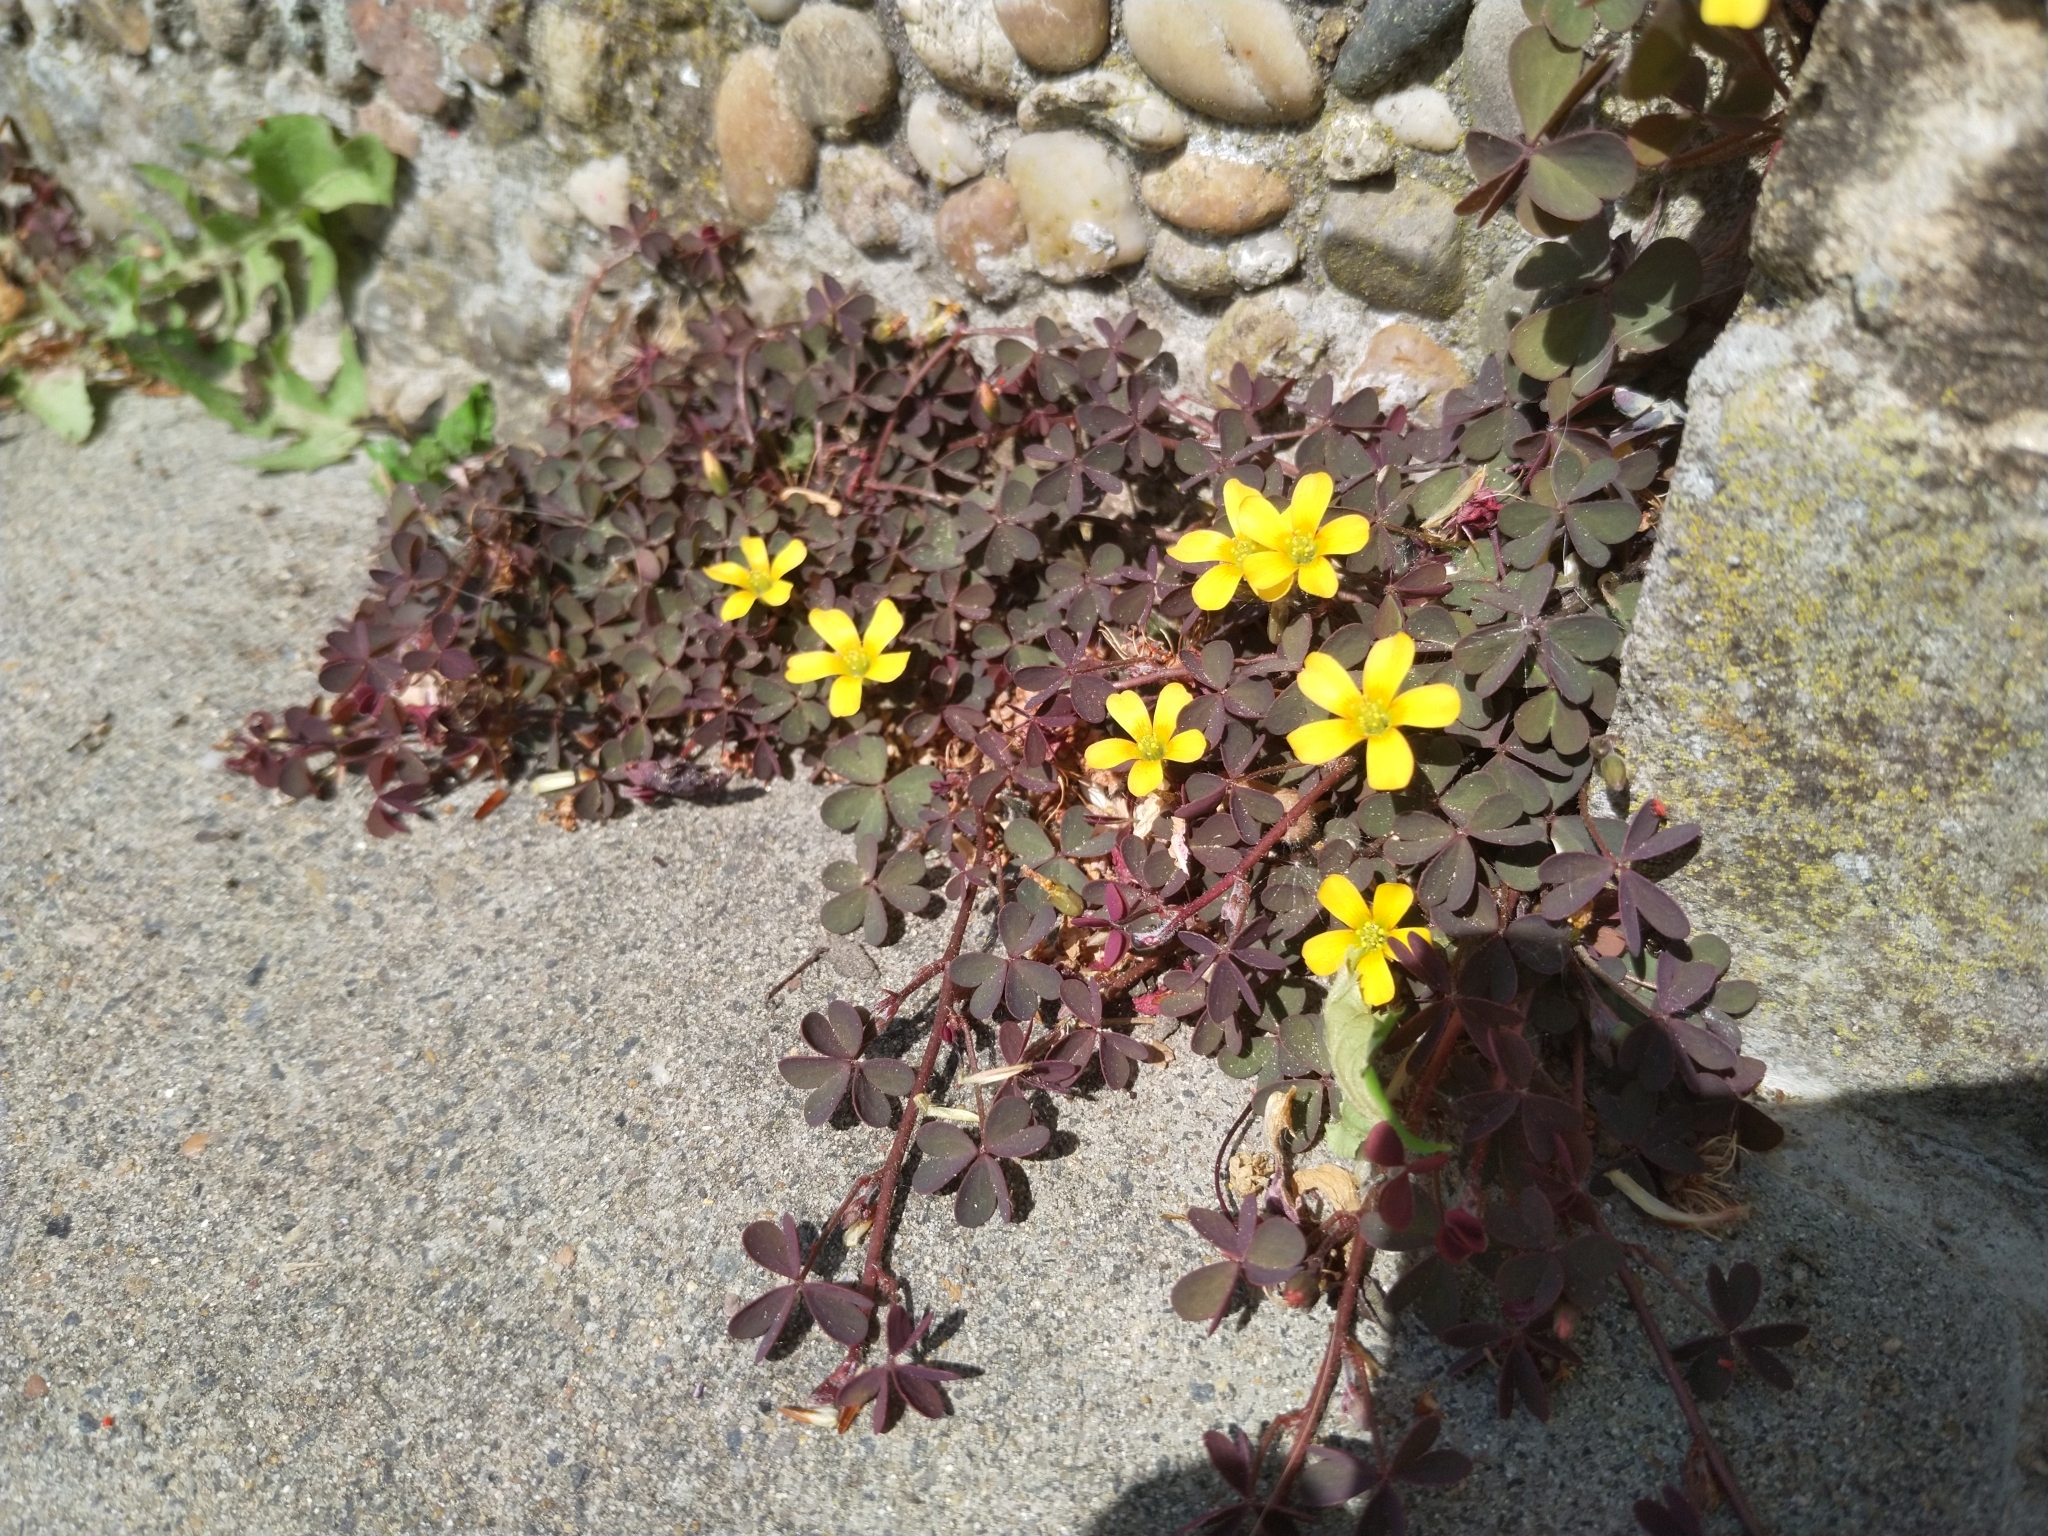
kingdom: Plantae
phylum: Tracheophyta
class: Magnoliopsida
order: Oxalidales
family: Oxalidaceae
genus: Oxalis
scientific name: Oxalis corniculata
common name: Procumbent yellow-sorrel
